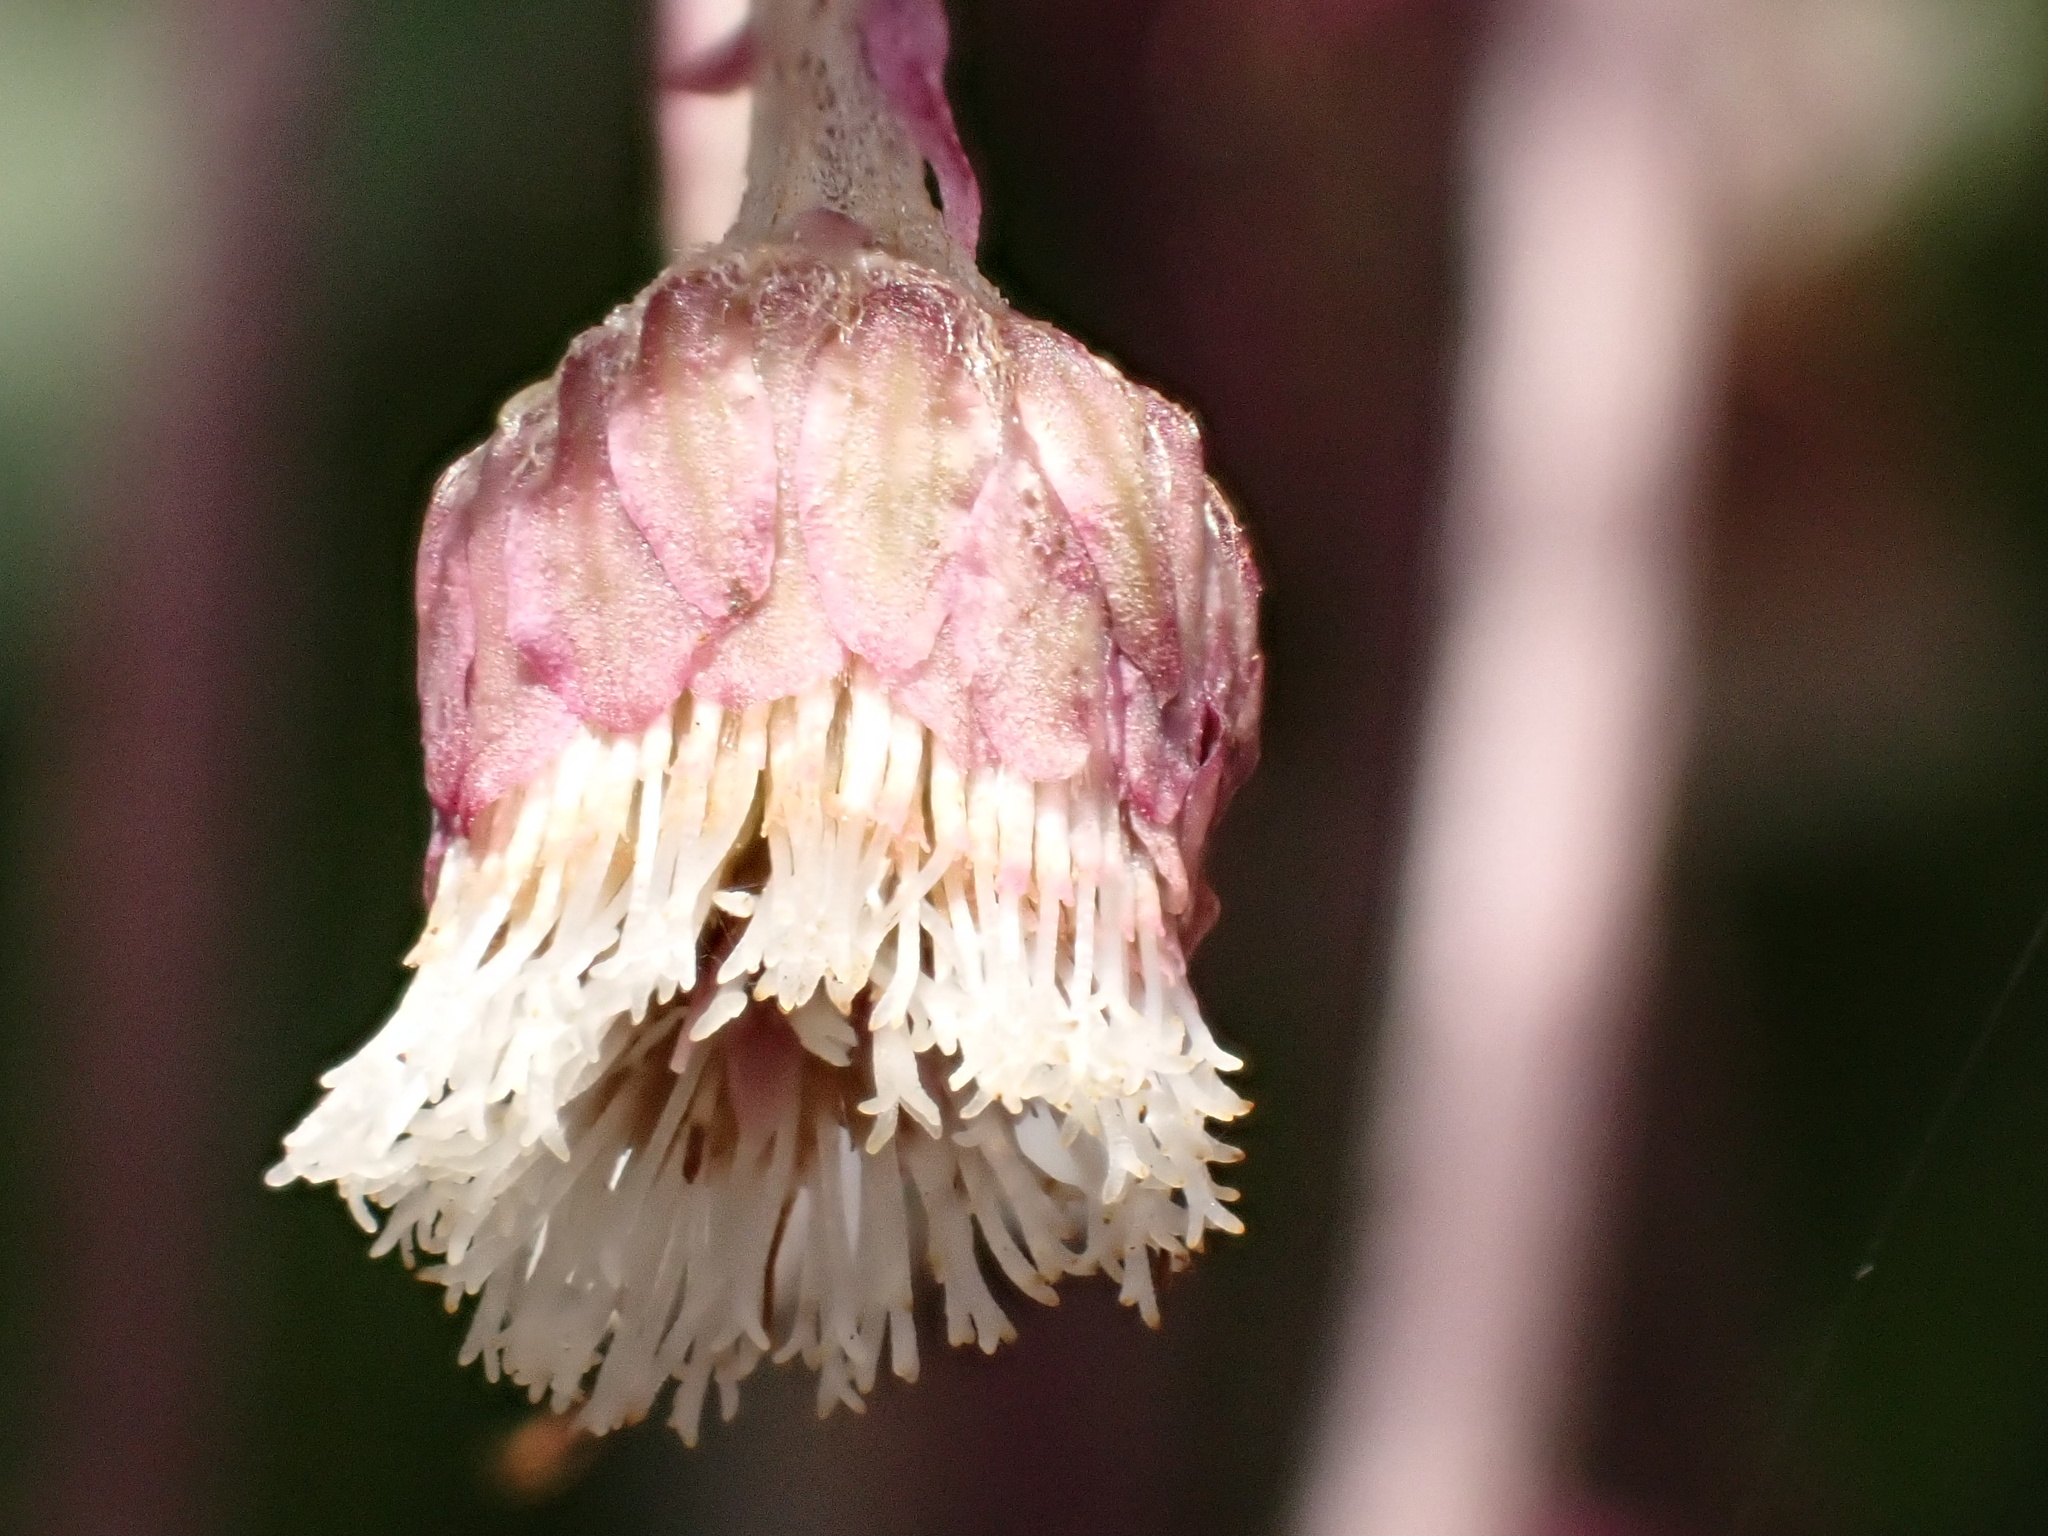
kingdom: Plantae
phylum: Tracheophyta
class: Magnoliopsida
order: Asterales
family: Asteraceae
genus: Petasites
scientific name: Petasites hybridus
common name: Butterbur
